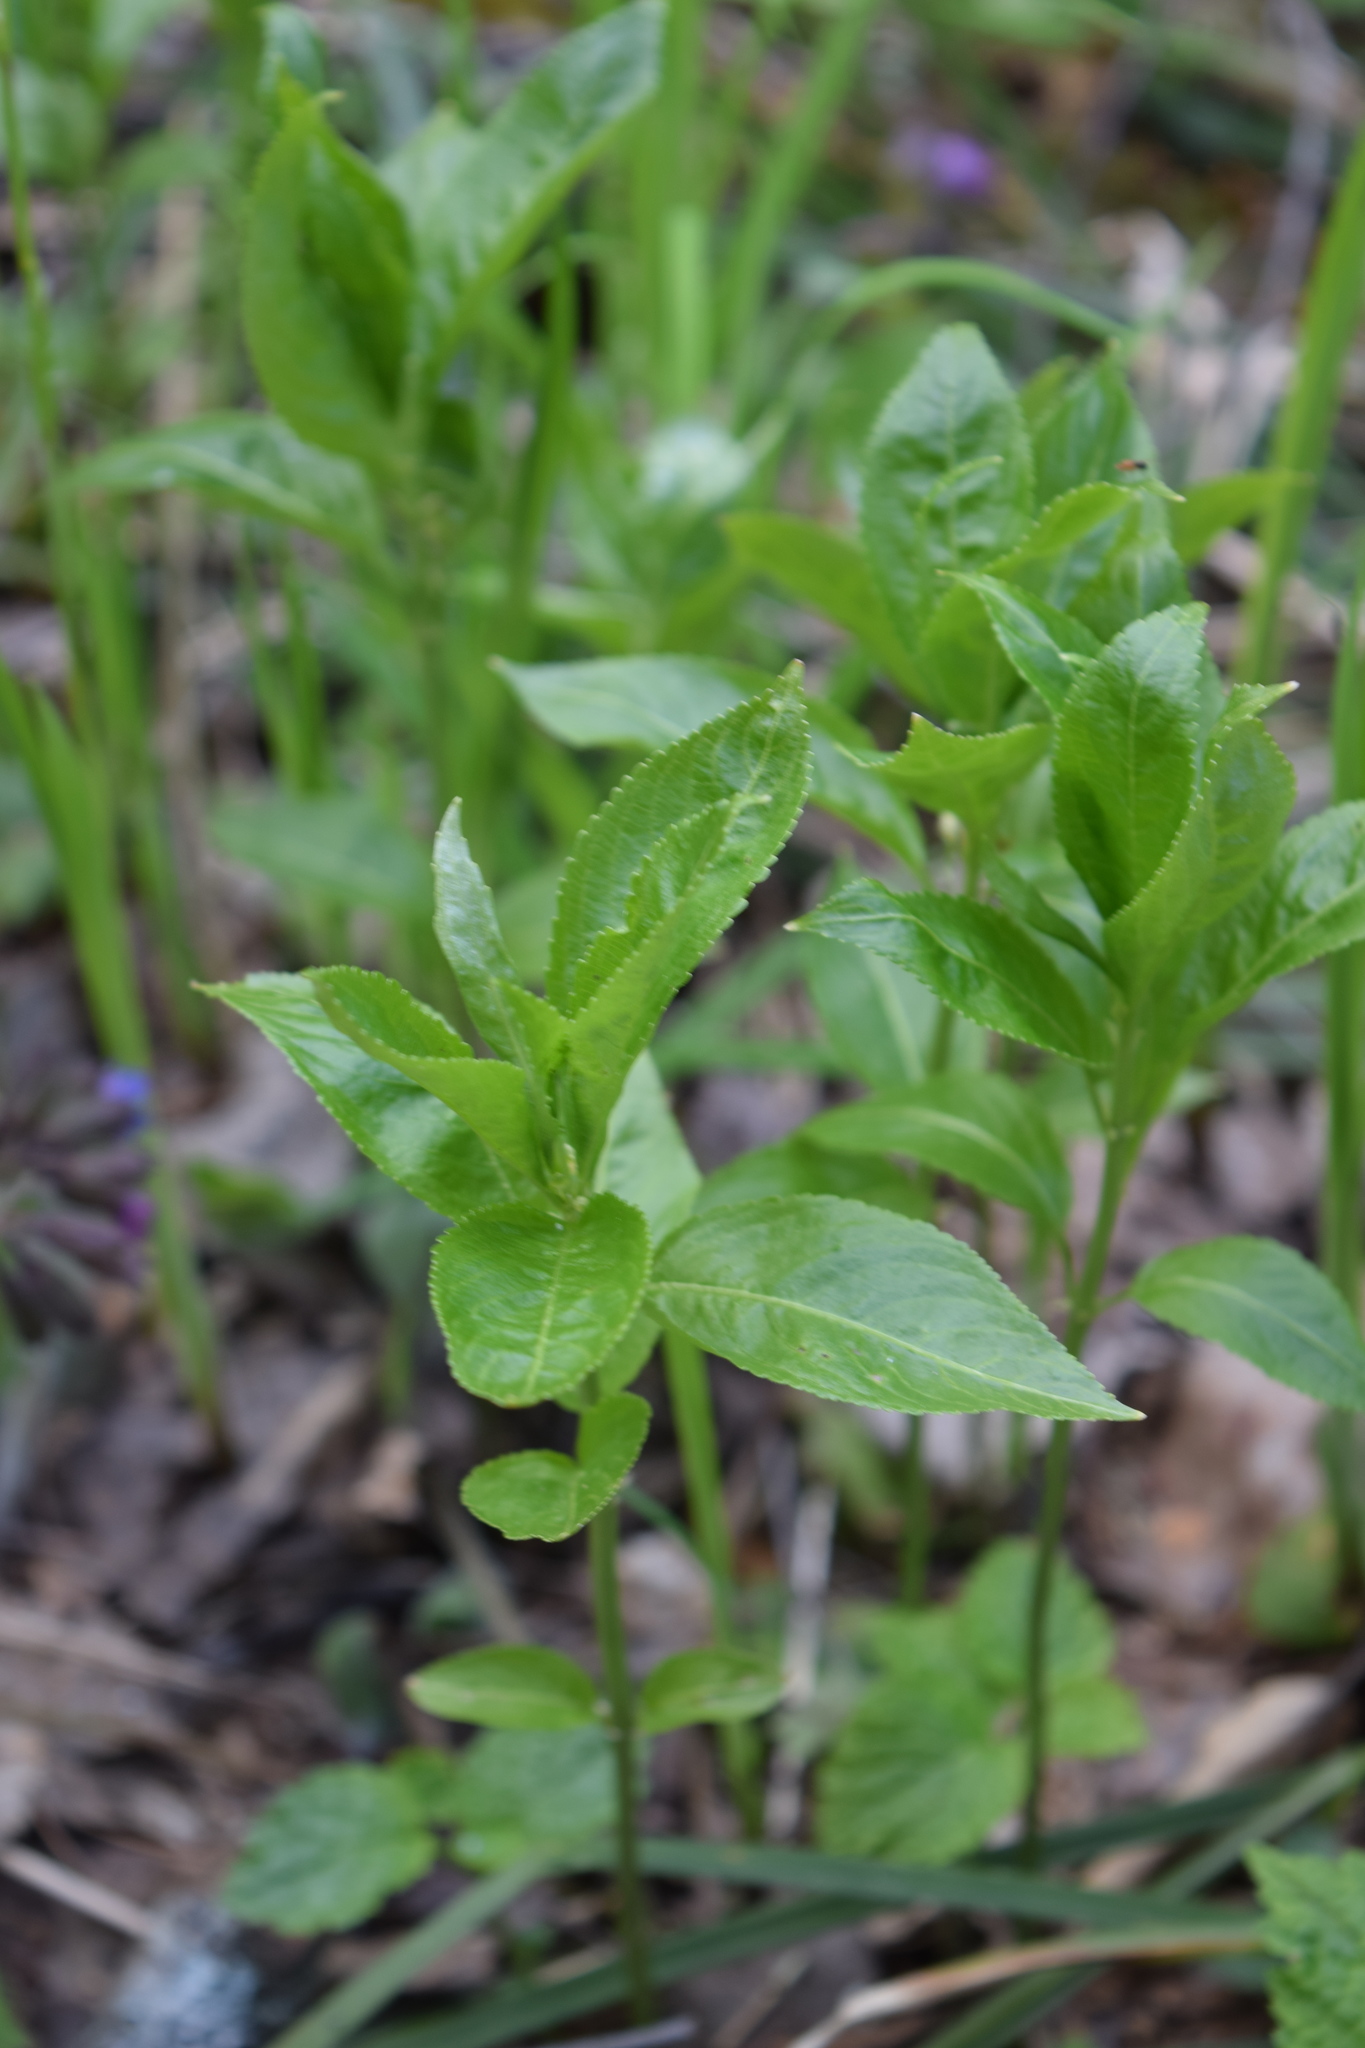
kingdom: Plantae
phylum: Tracheophyta
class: Magnoliopsida
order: Malpighiales
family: Euphorbiaceae
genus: Mercurialis
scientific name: Mercurialis perennis
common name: Dog mercury
